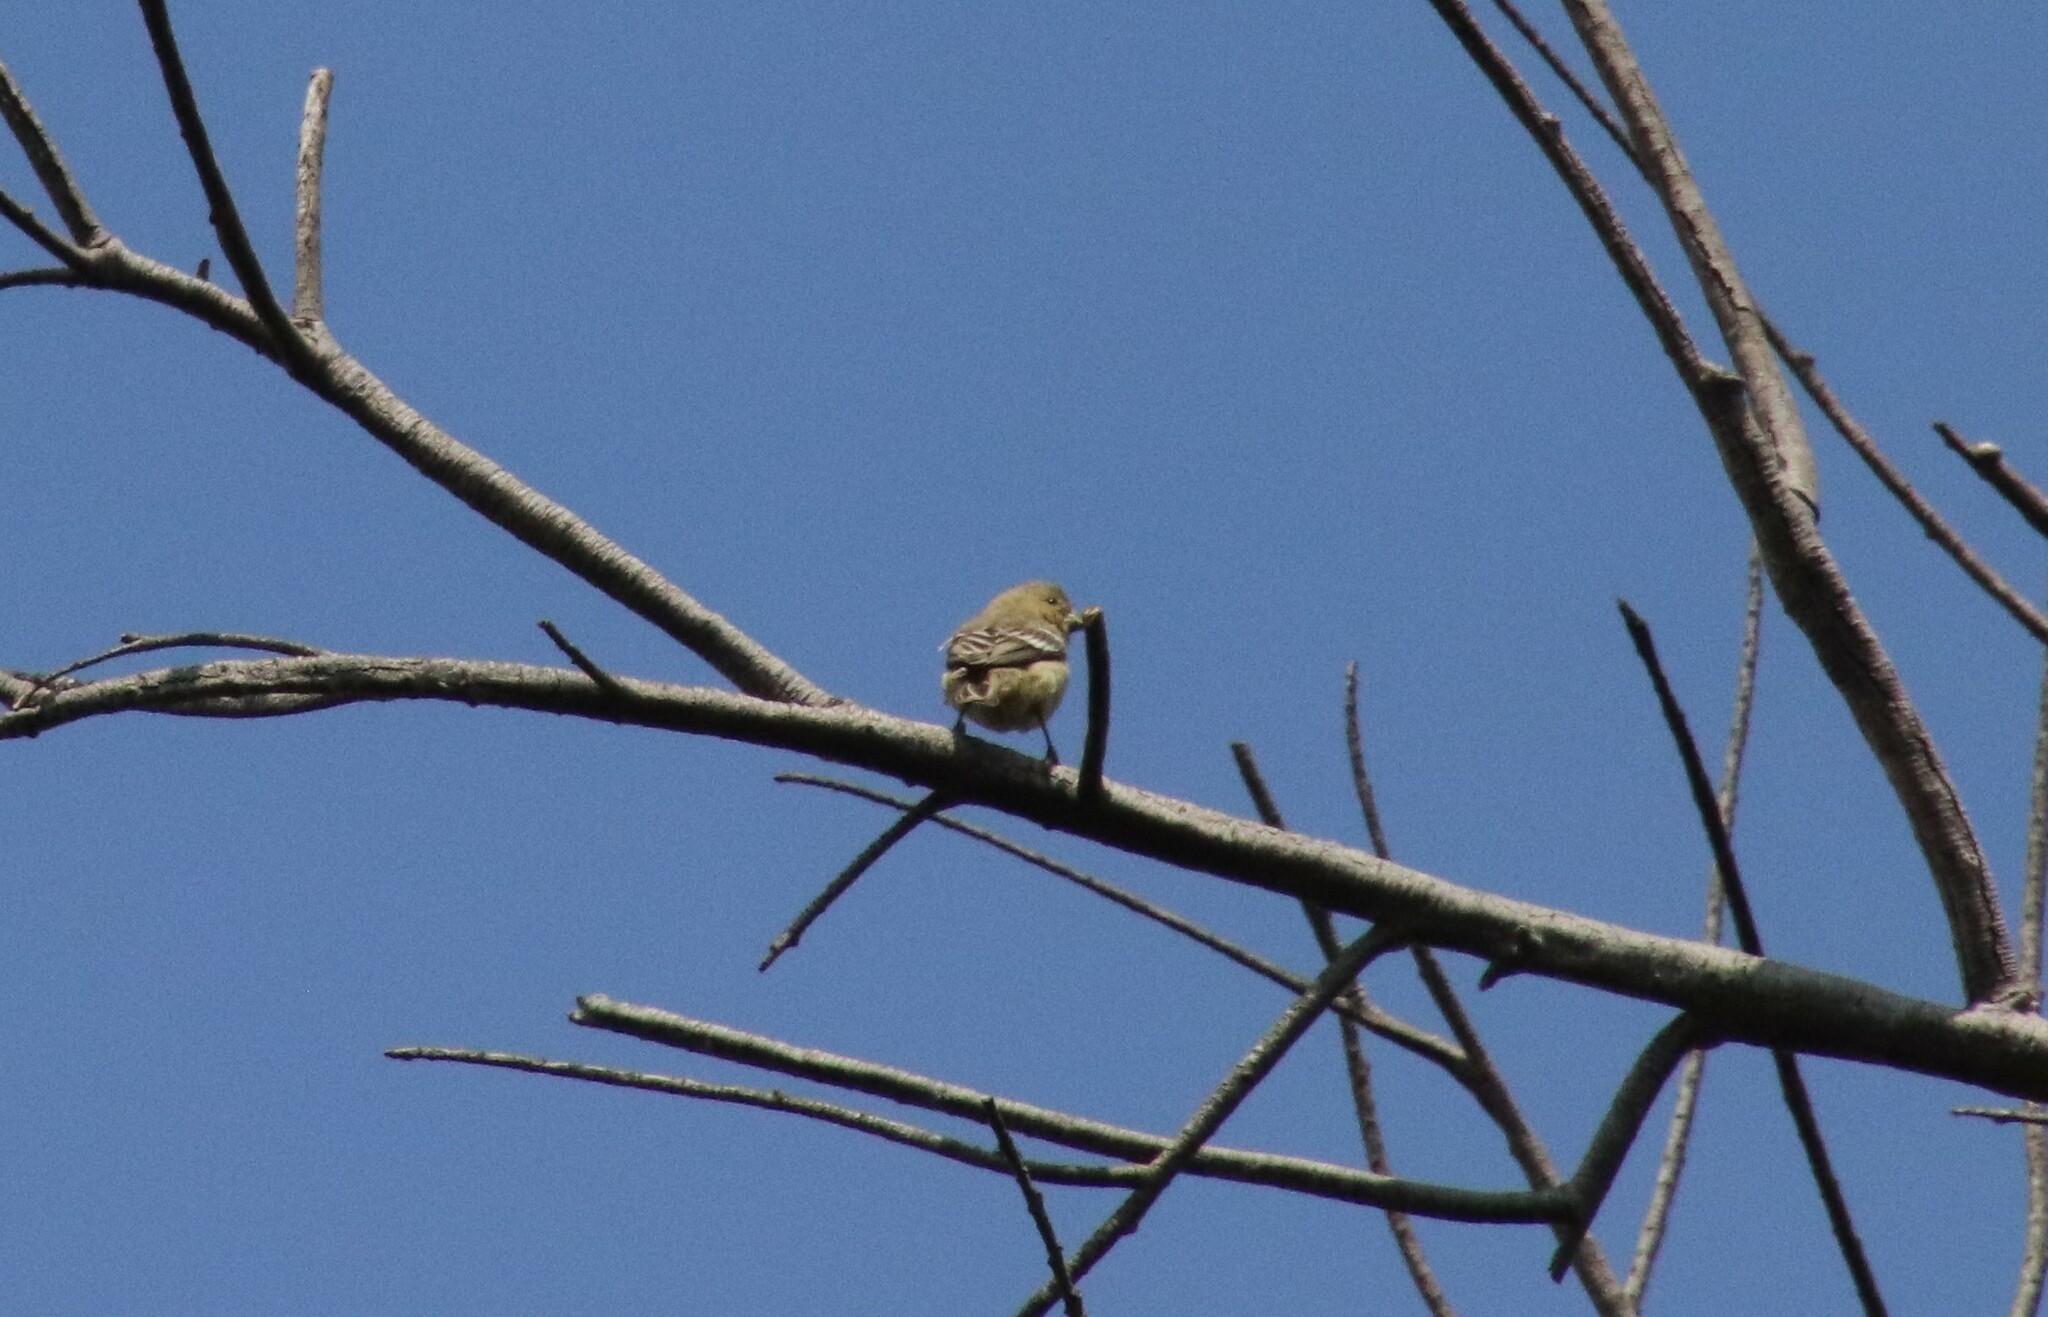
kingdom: Animalia
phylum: Chordata
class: Aves
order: Passeriformes
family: Fringillidae
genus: Spinus
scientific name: Spinus psaltria
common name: Lesser goldfinch
